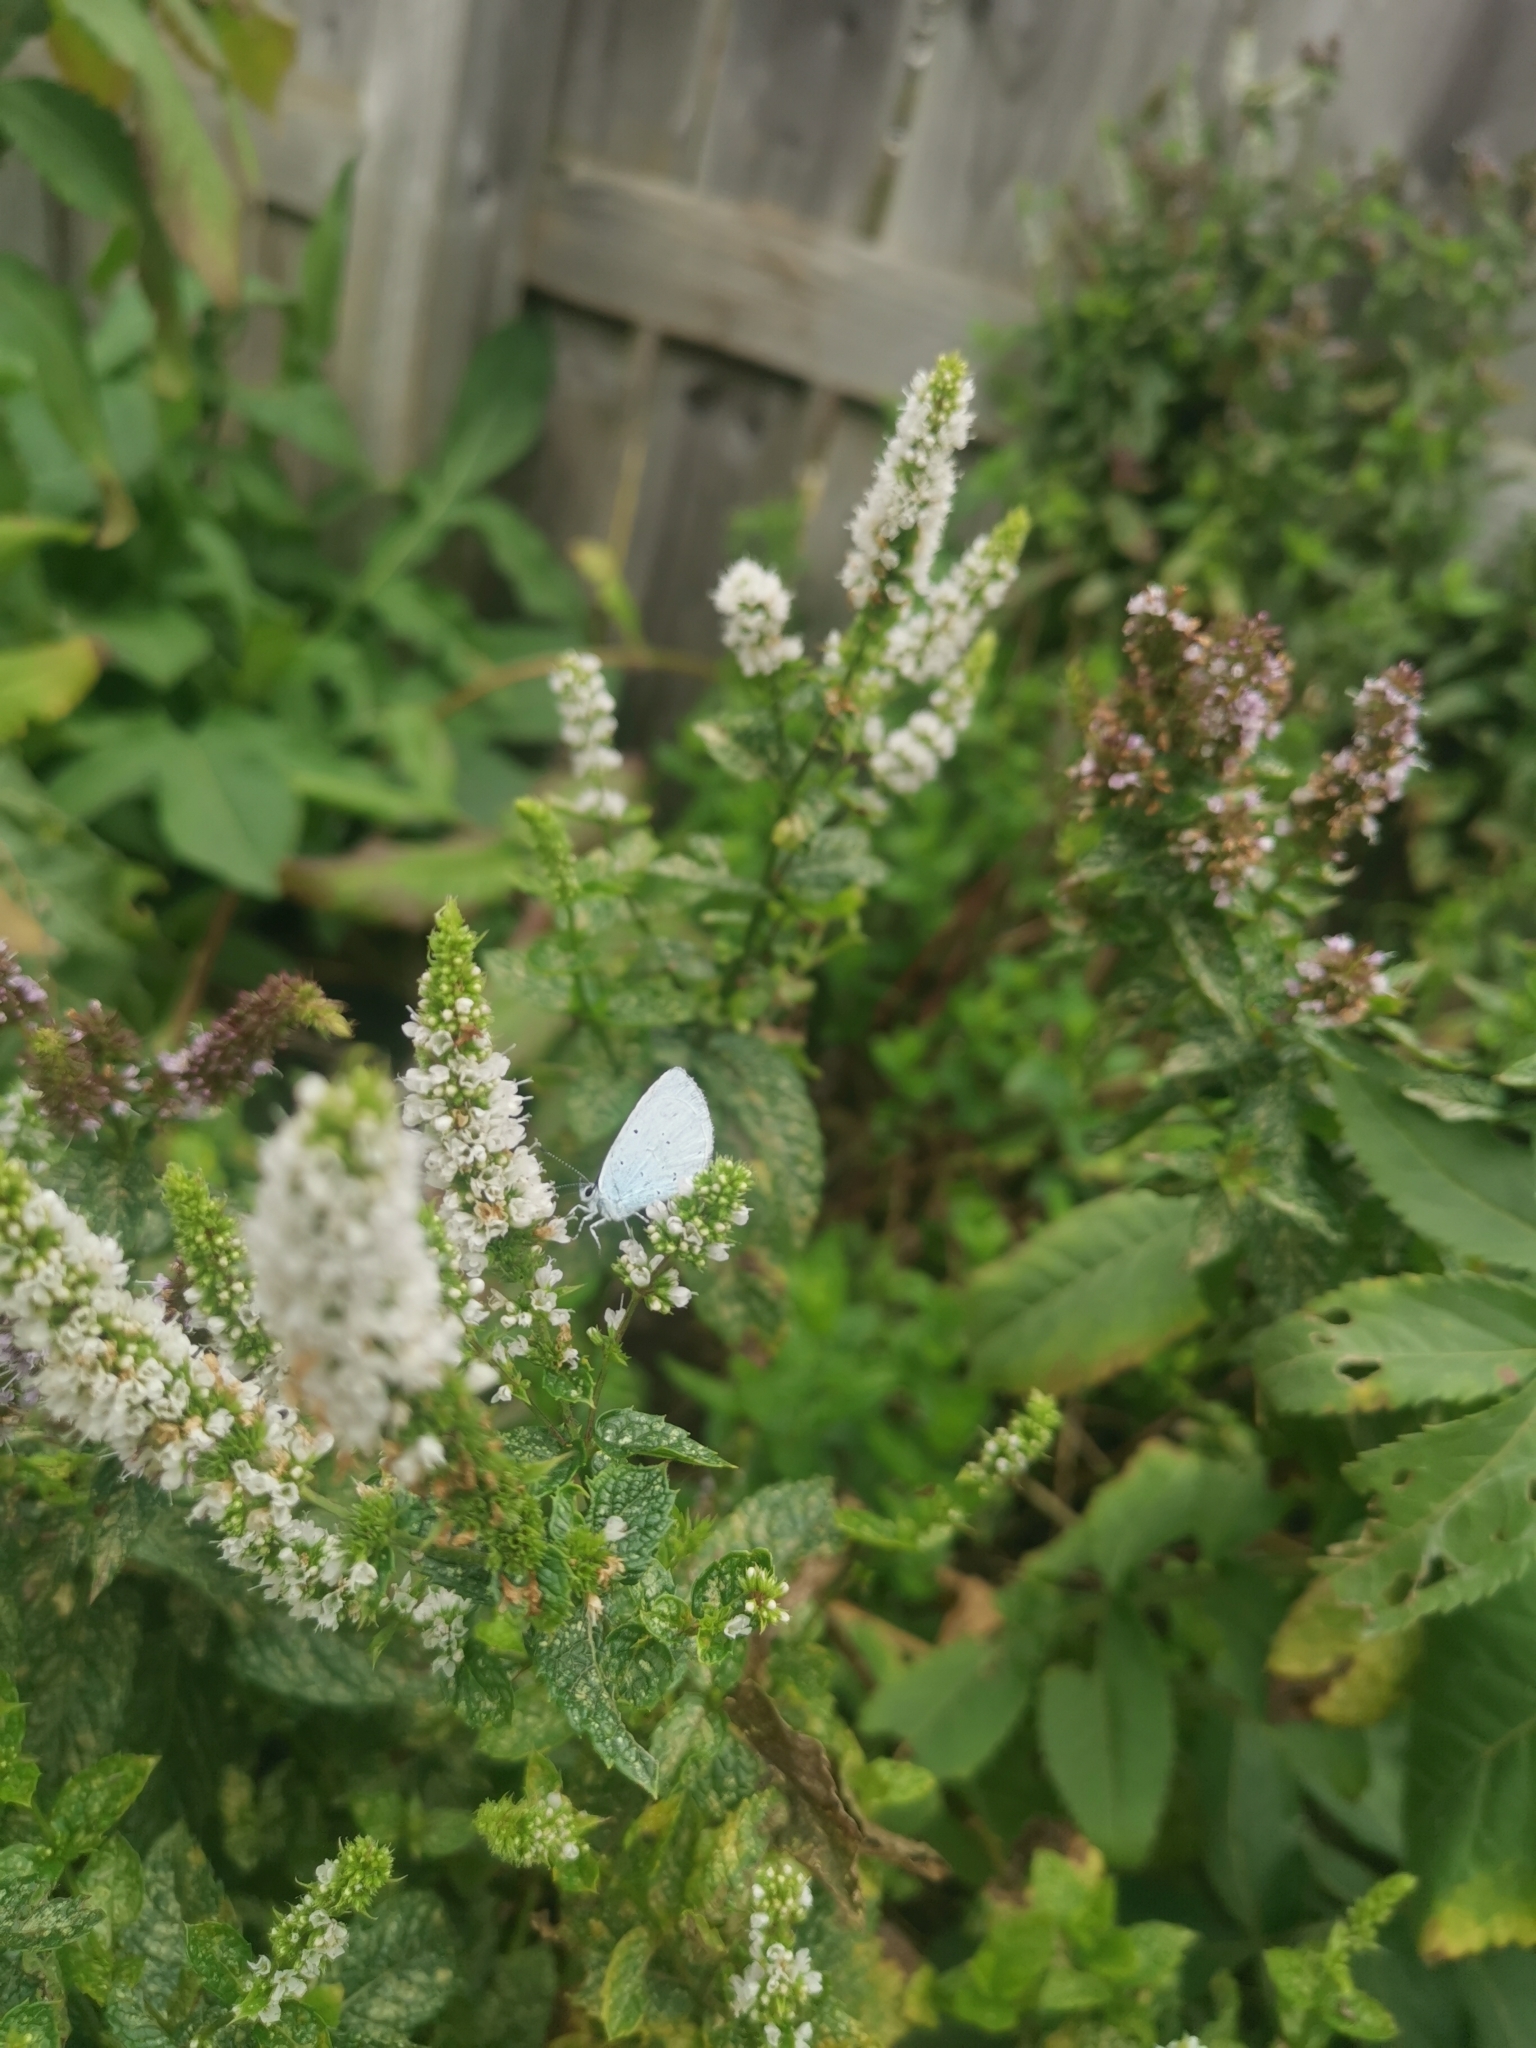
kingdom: Animalia
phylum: Arthropoda
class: Insecta
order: Lepidoptera
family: Lycaenidae
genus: Celastrina
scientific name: Celastrina argiolus
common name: Holly blue
